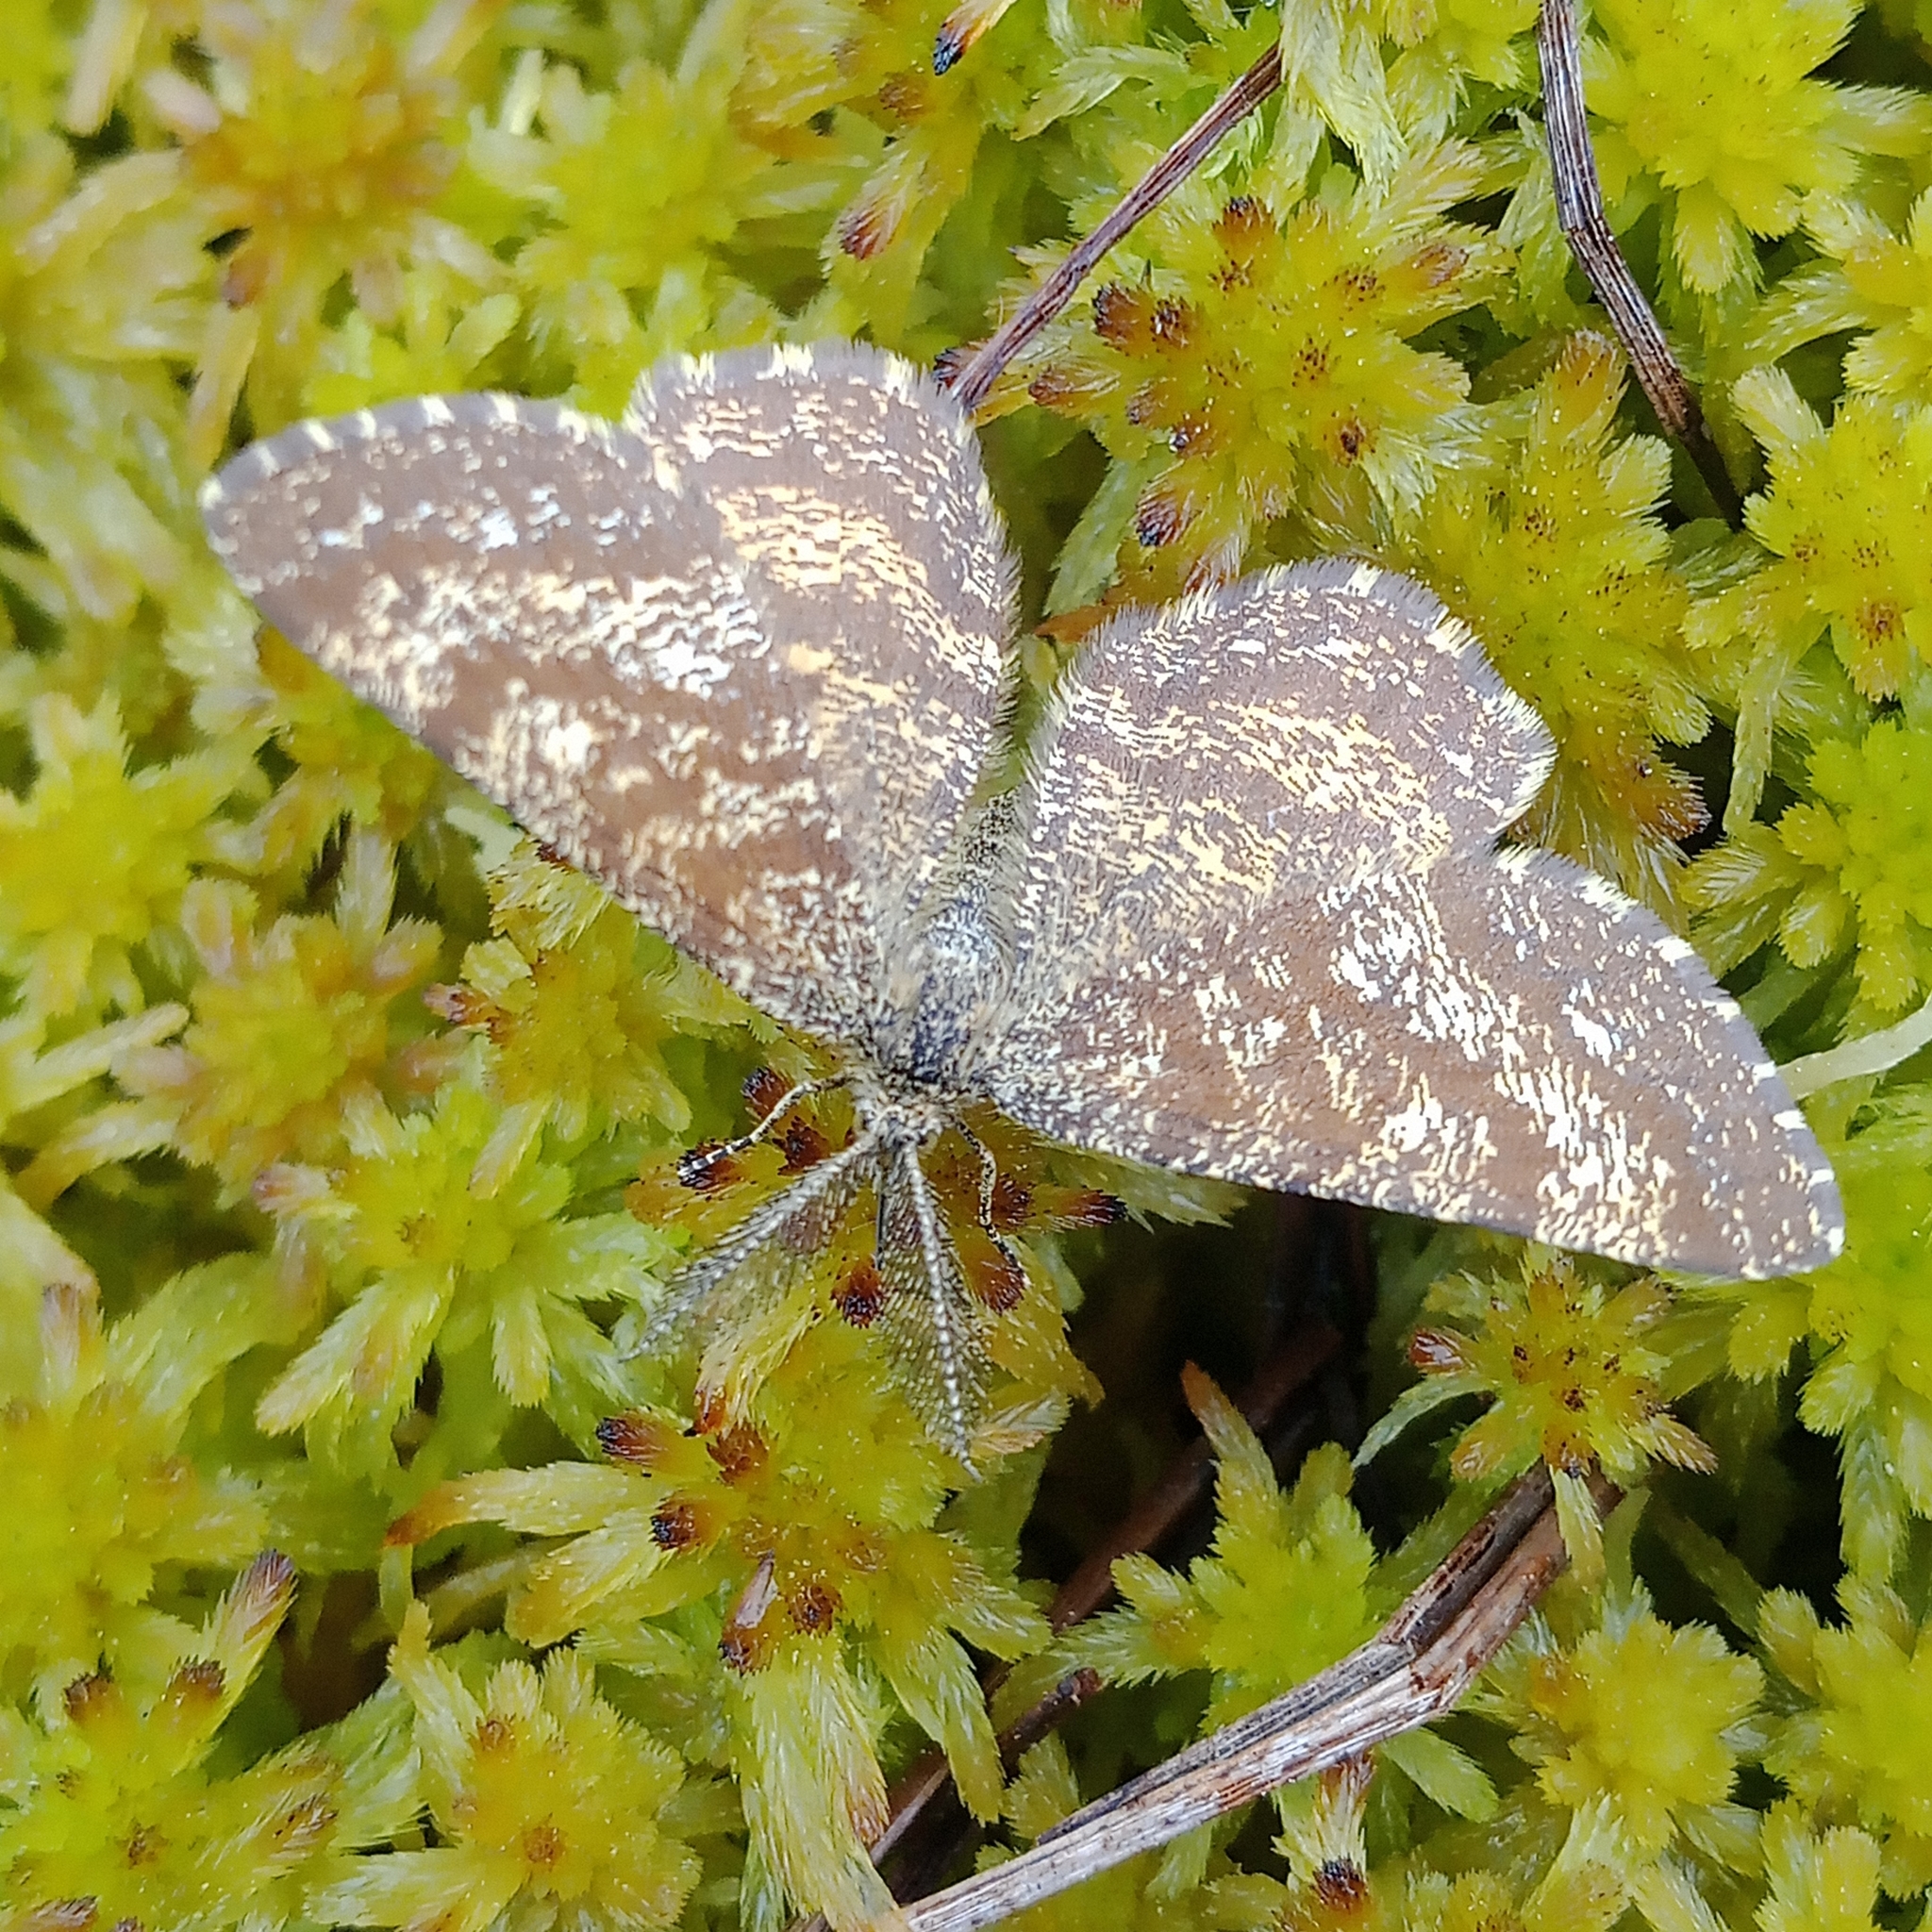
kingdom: Animalia
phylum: Arthropoda
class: Insecta
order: Lepidoptera
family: Geometridae
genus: Ematurga
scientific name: Ematurga atomaria
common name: Common heath
